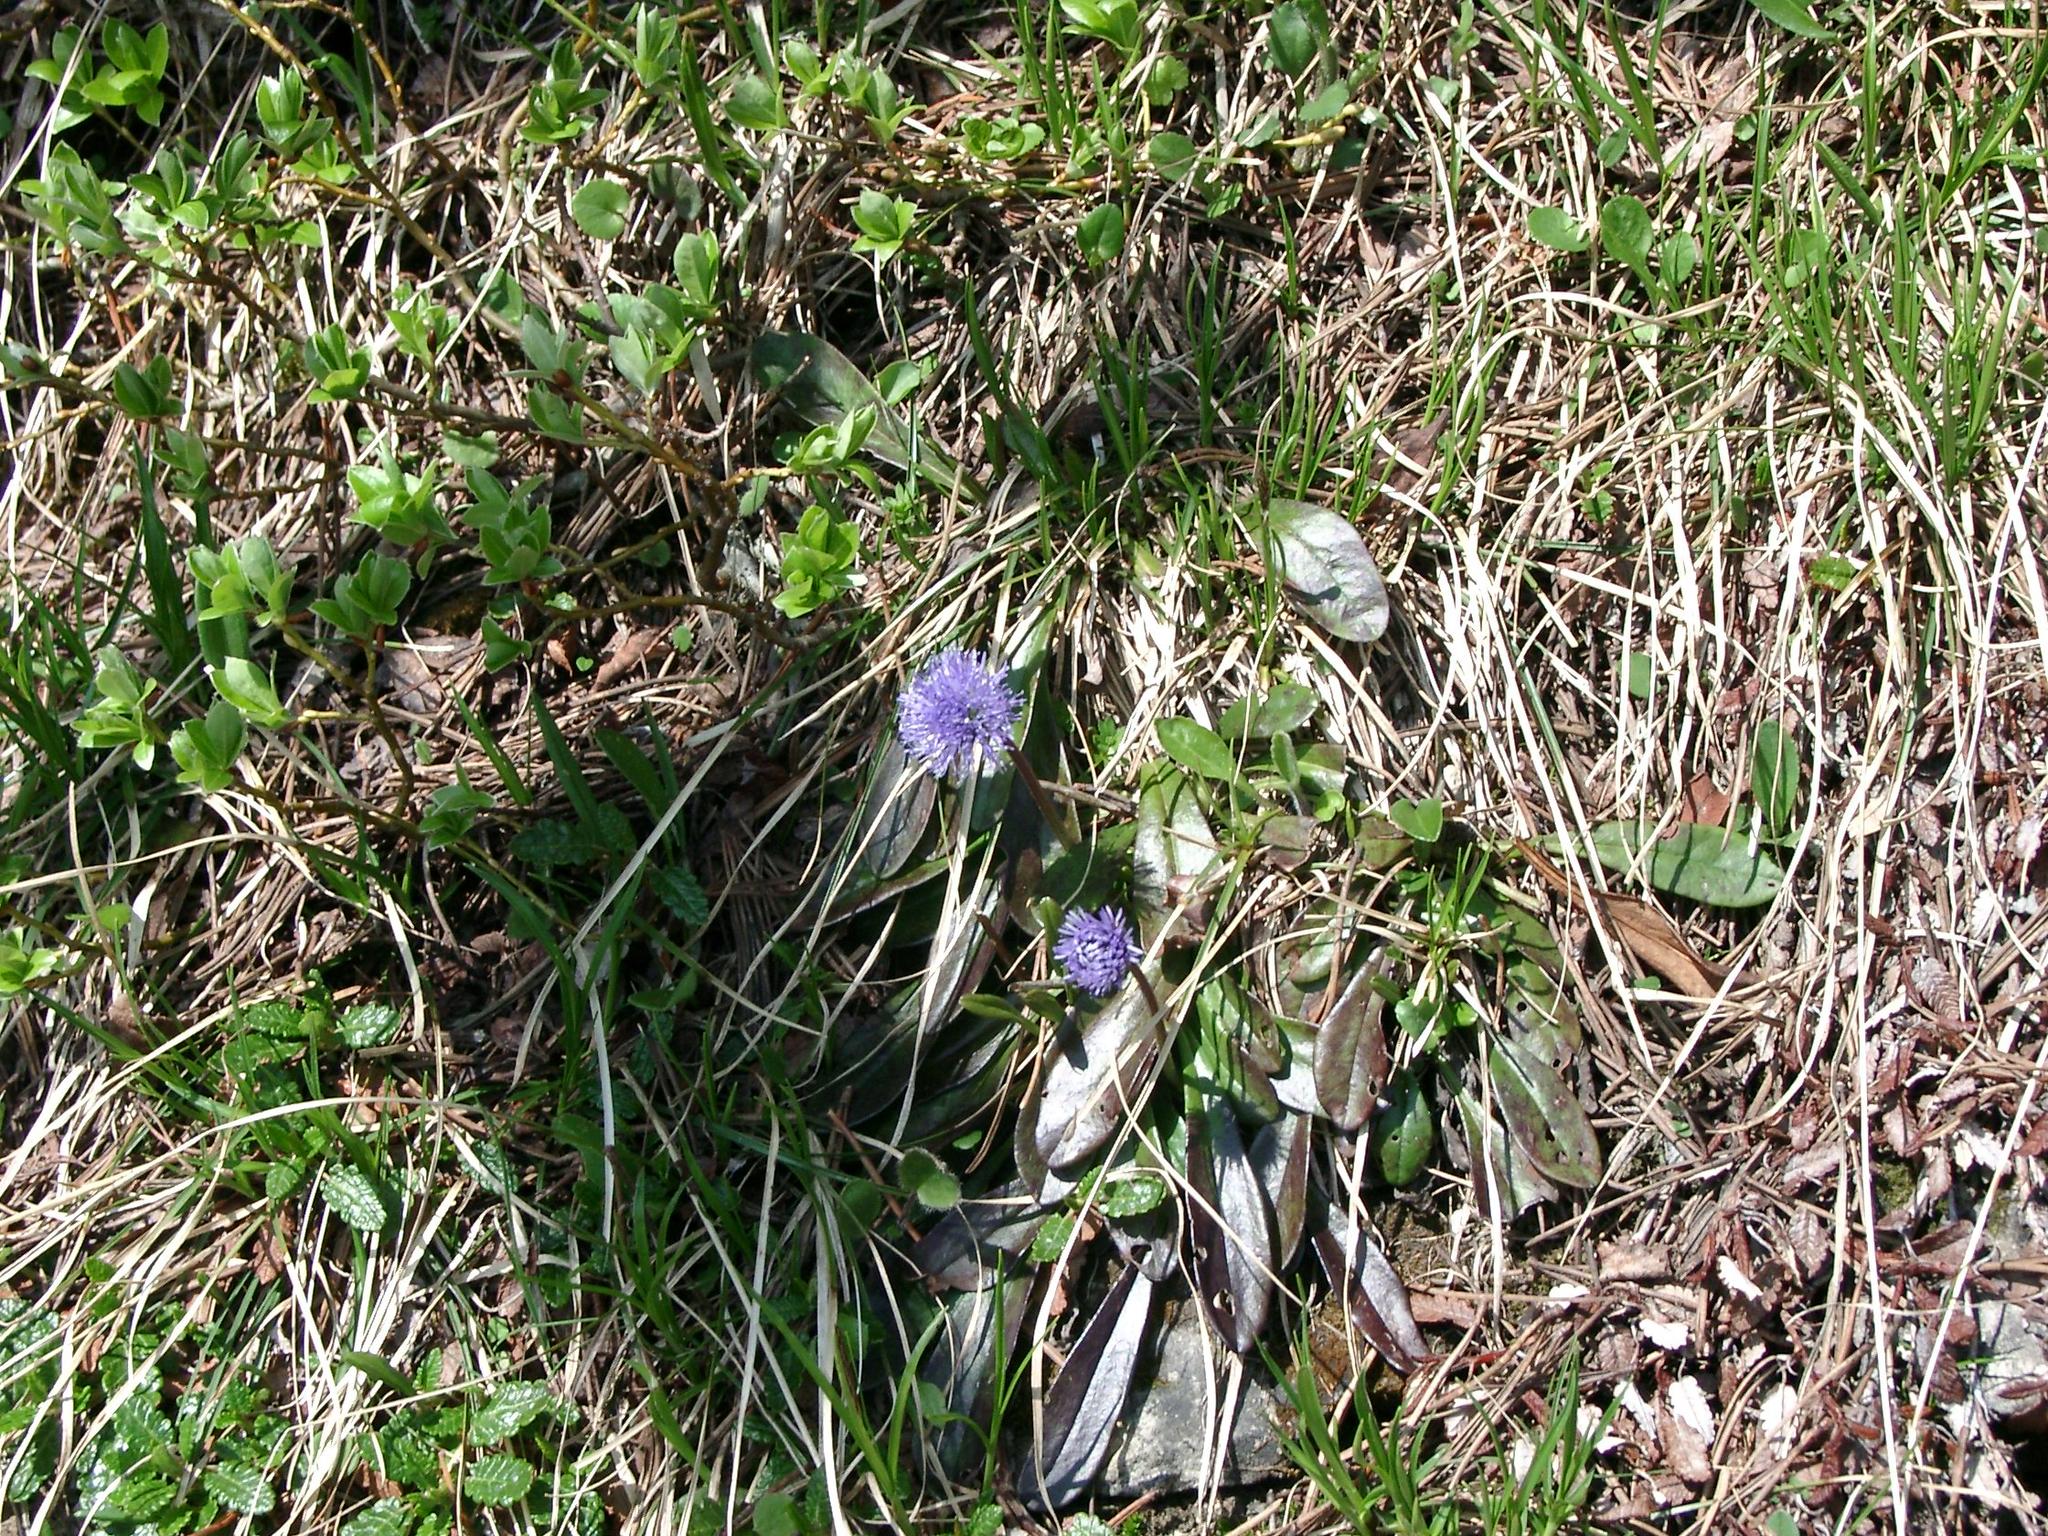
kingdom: Plantae
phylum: Tracheophyta
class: Magnoliopsida
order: Lamiales
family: Plantaginaceae
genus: Globularia
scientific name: Globularia nudicaulis
